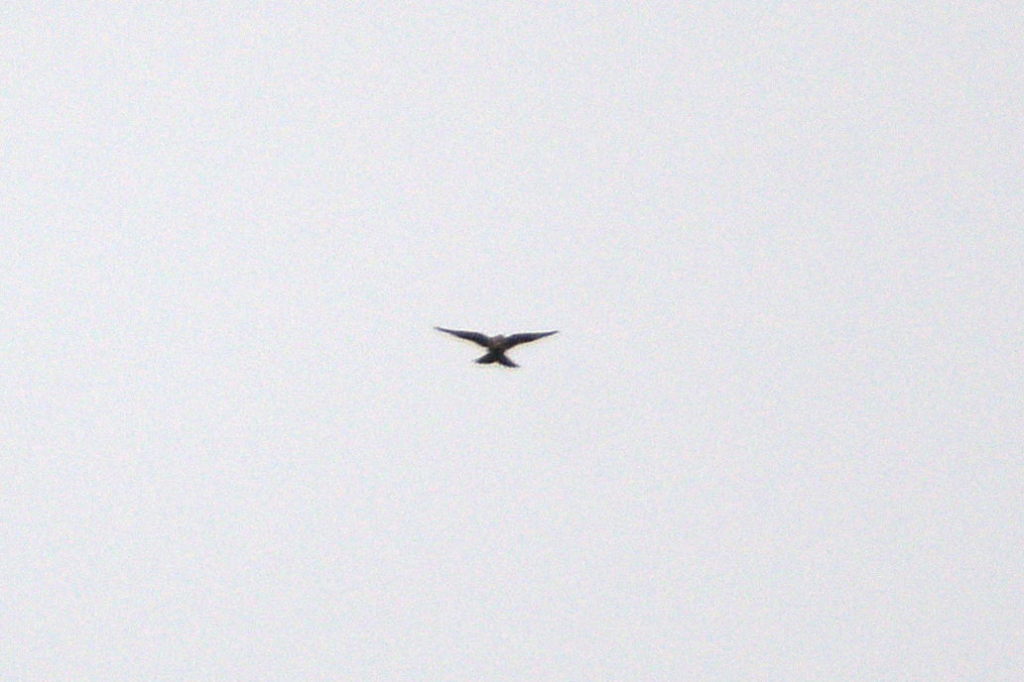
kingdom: Animalia
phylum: Chordata
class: Aves
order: Passeriformes
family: Alaudidae
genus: Alauda
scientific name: Alauda arvensis
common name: Eurasian skylark
